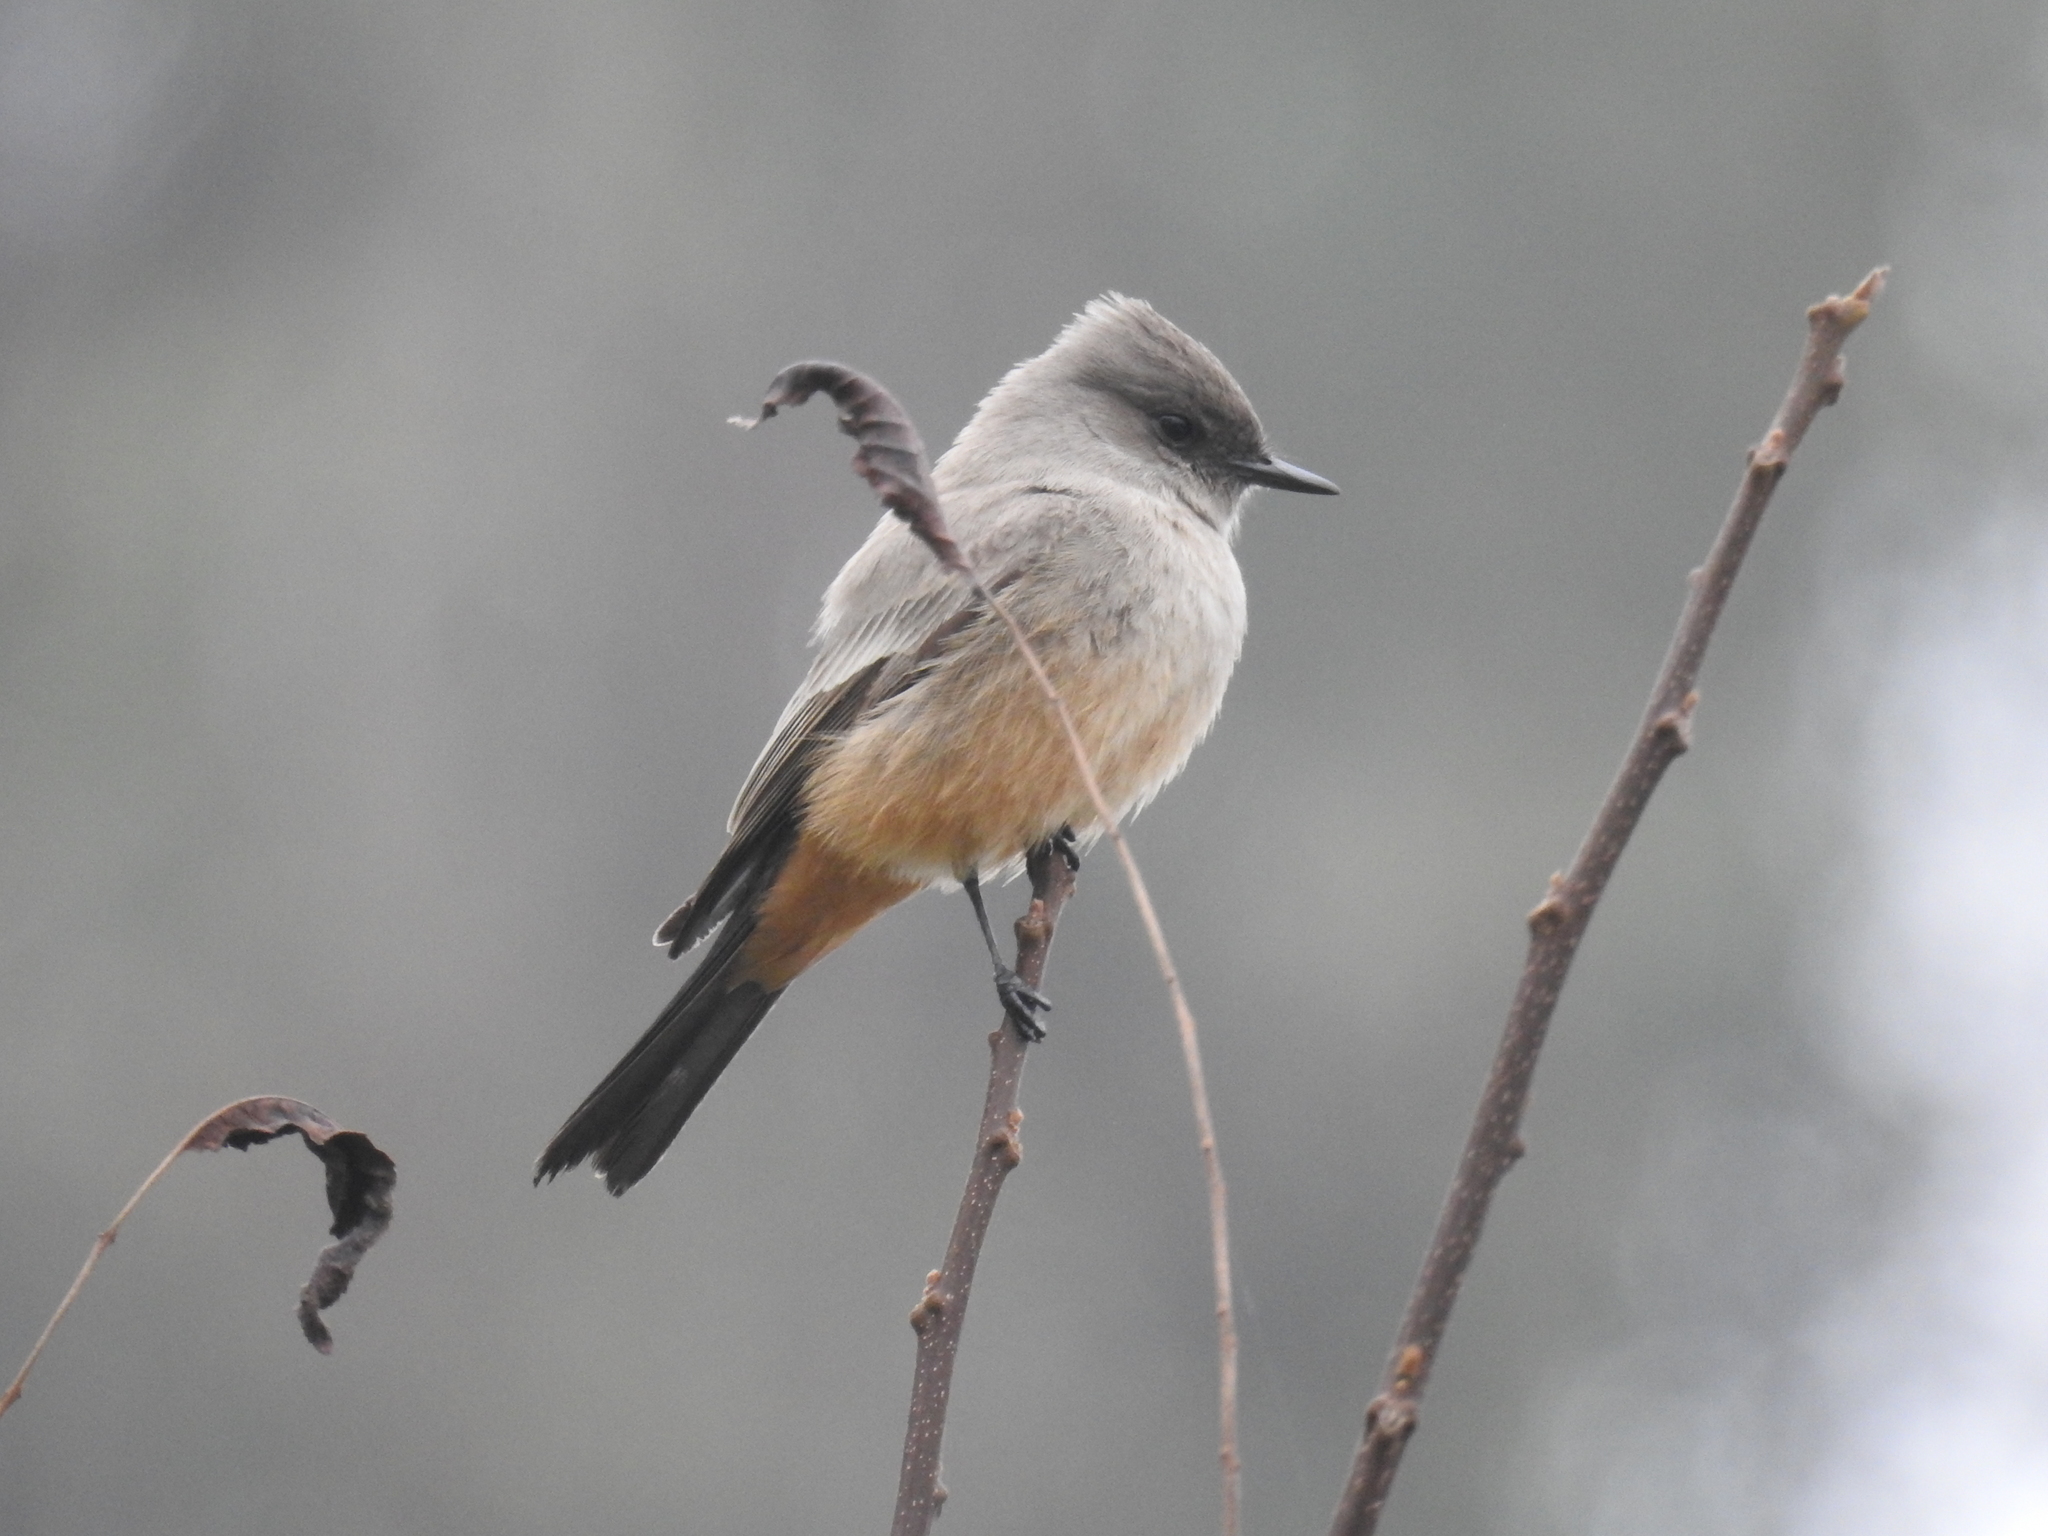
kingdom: Animalia
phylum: Chordata
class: Aves
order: Passeriformes
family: Tyrannidae
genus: Sayornis
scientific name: Sayornis saya
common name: Say's phoebe
